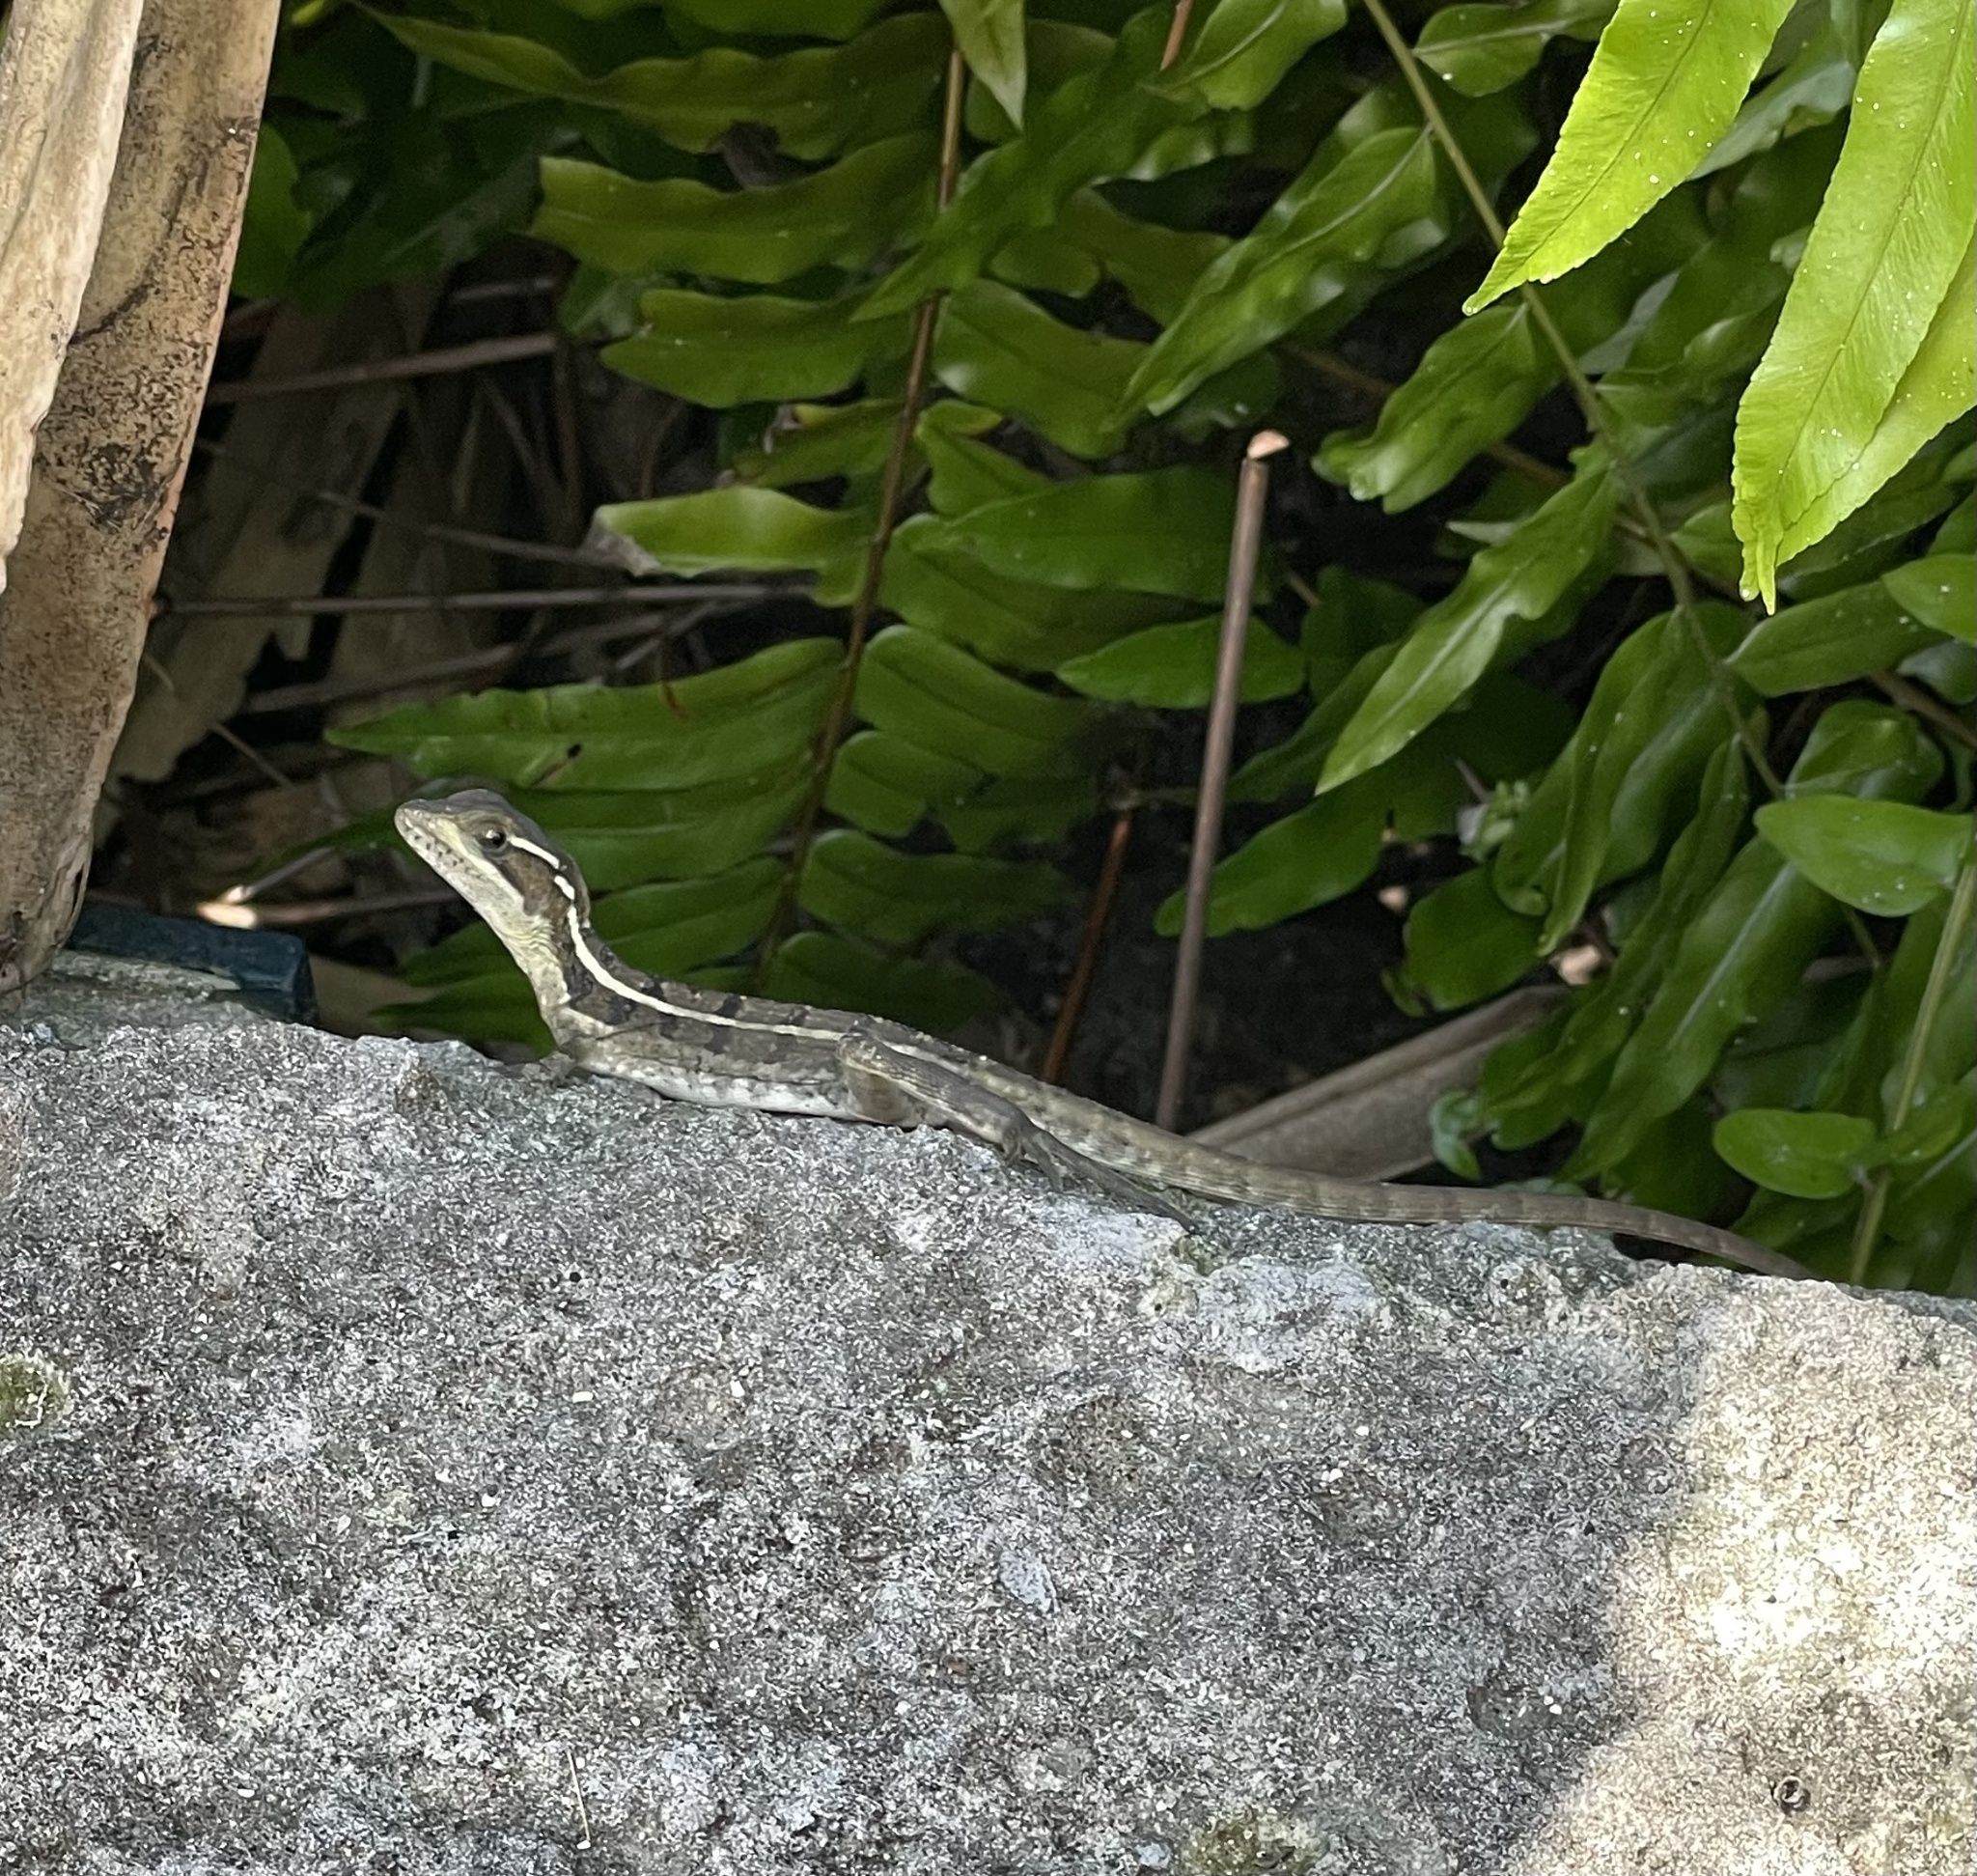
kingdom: Animalia
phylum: Chordata
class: Squamata
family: Corytophanidae
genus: Basiliscus
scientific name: Basiliscus vittatus
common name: Brown basilisk
